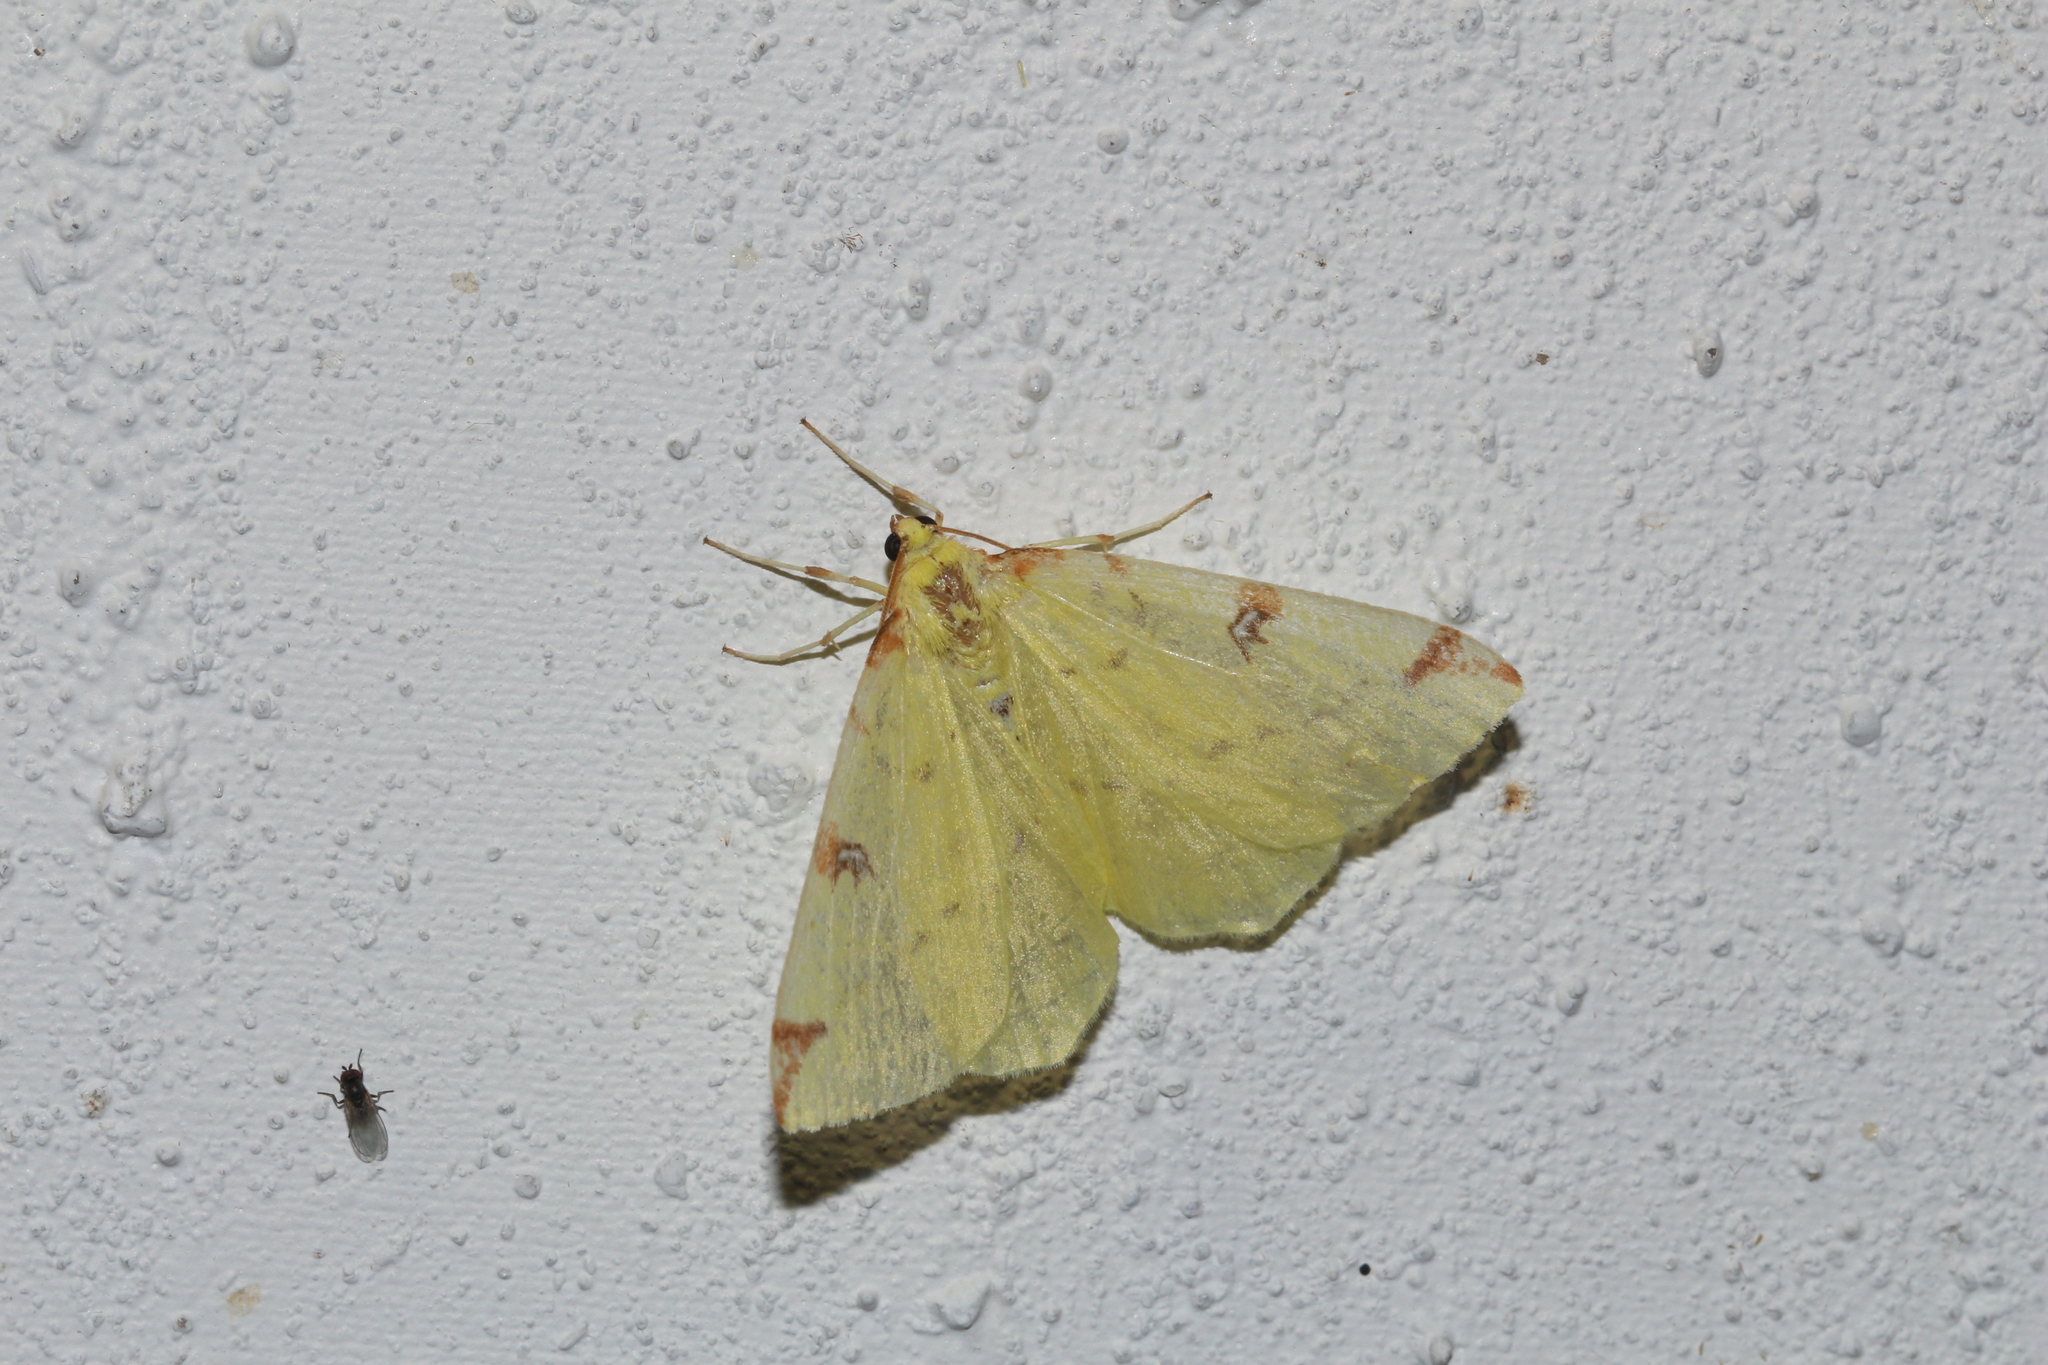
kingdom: Animalia
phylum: Arthropoda
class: Insecta
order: Lepidoptera
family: Geometridae
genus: Opisthograptis
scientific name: Opisthograptis luteolata
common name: Brimstone moth
